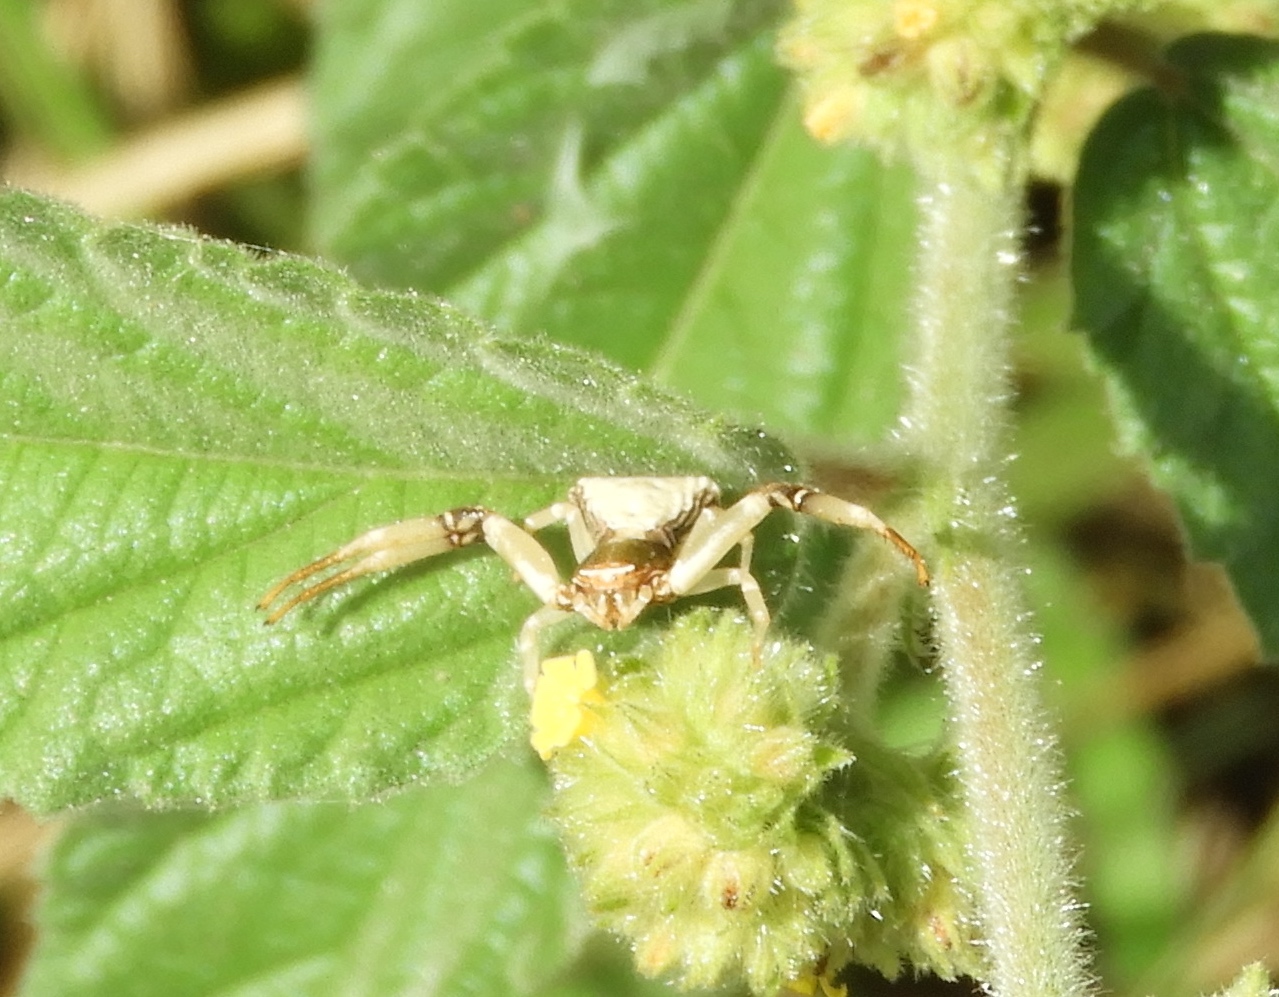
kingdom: Animalia
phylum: Arthropoda
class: Arachnida
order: Araneae
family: Thomisidae
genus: Misumenoides
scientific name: Misumenoides
